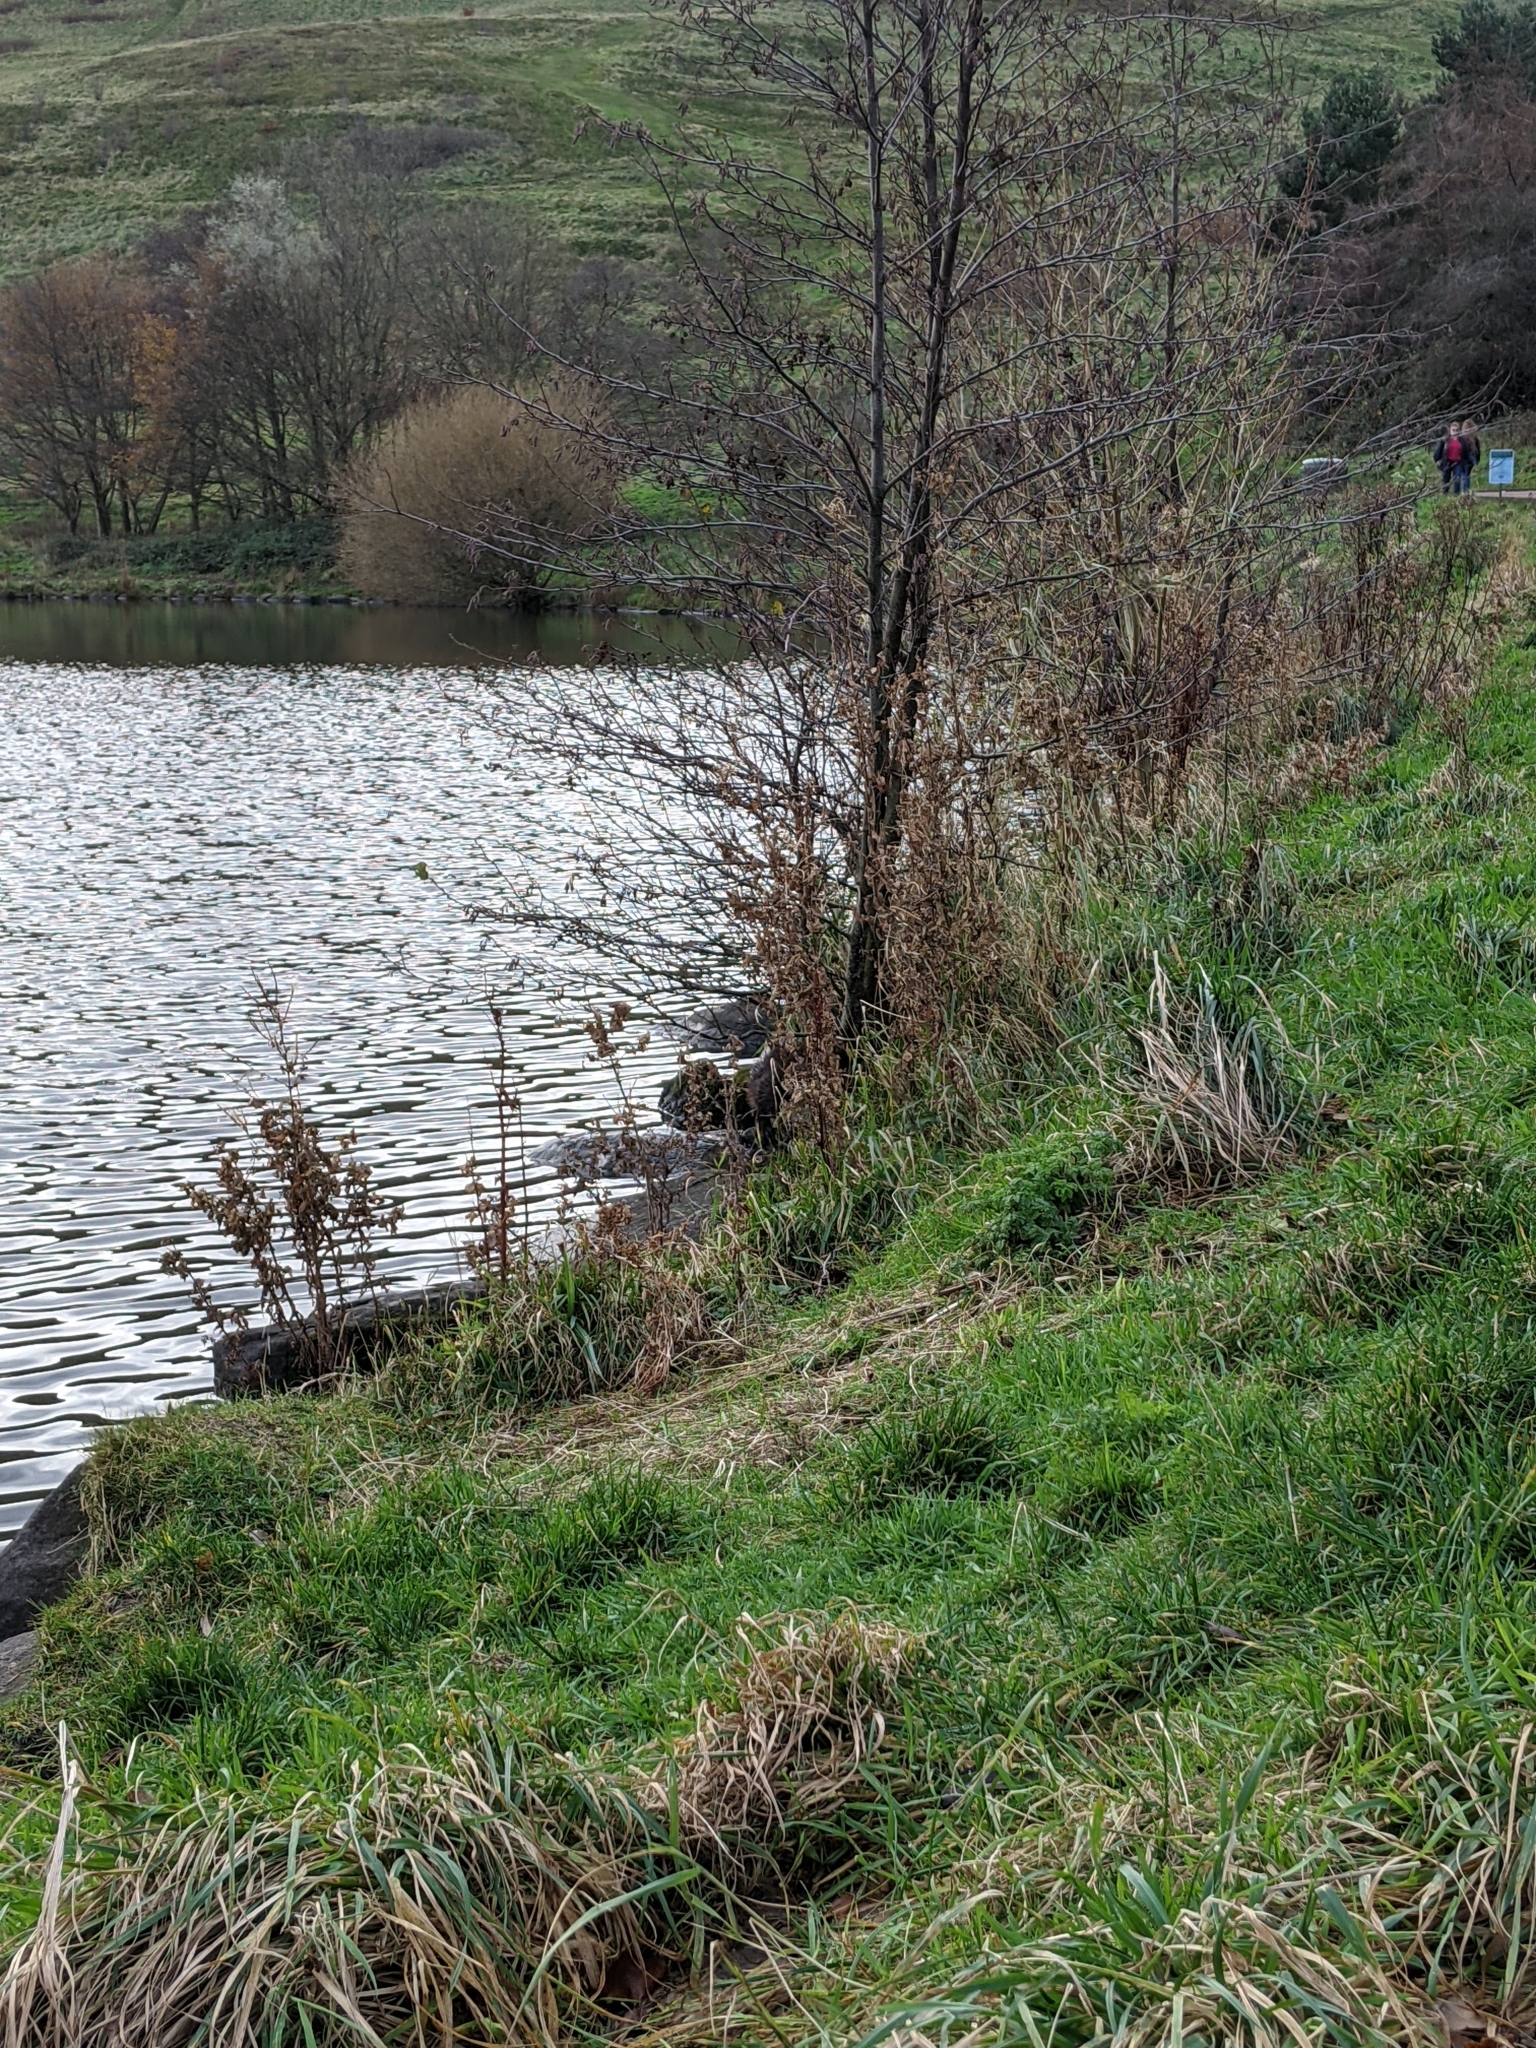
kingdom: Animalia
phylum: Chordata
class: Mammalia
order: Carnivora
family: Mustelidae
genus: Lutra
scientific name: Lutra lutra
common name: European otter
